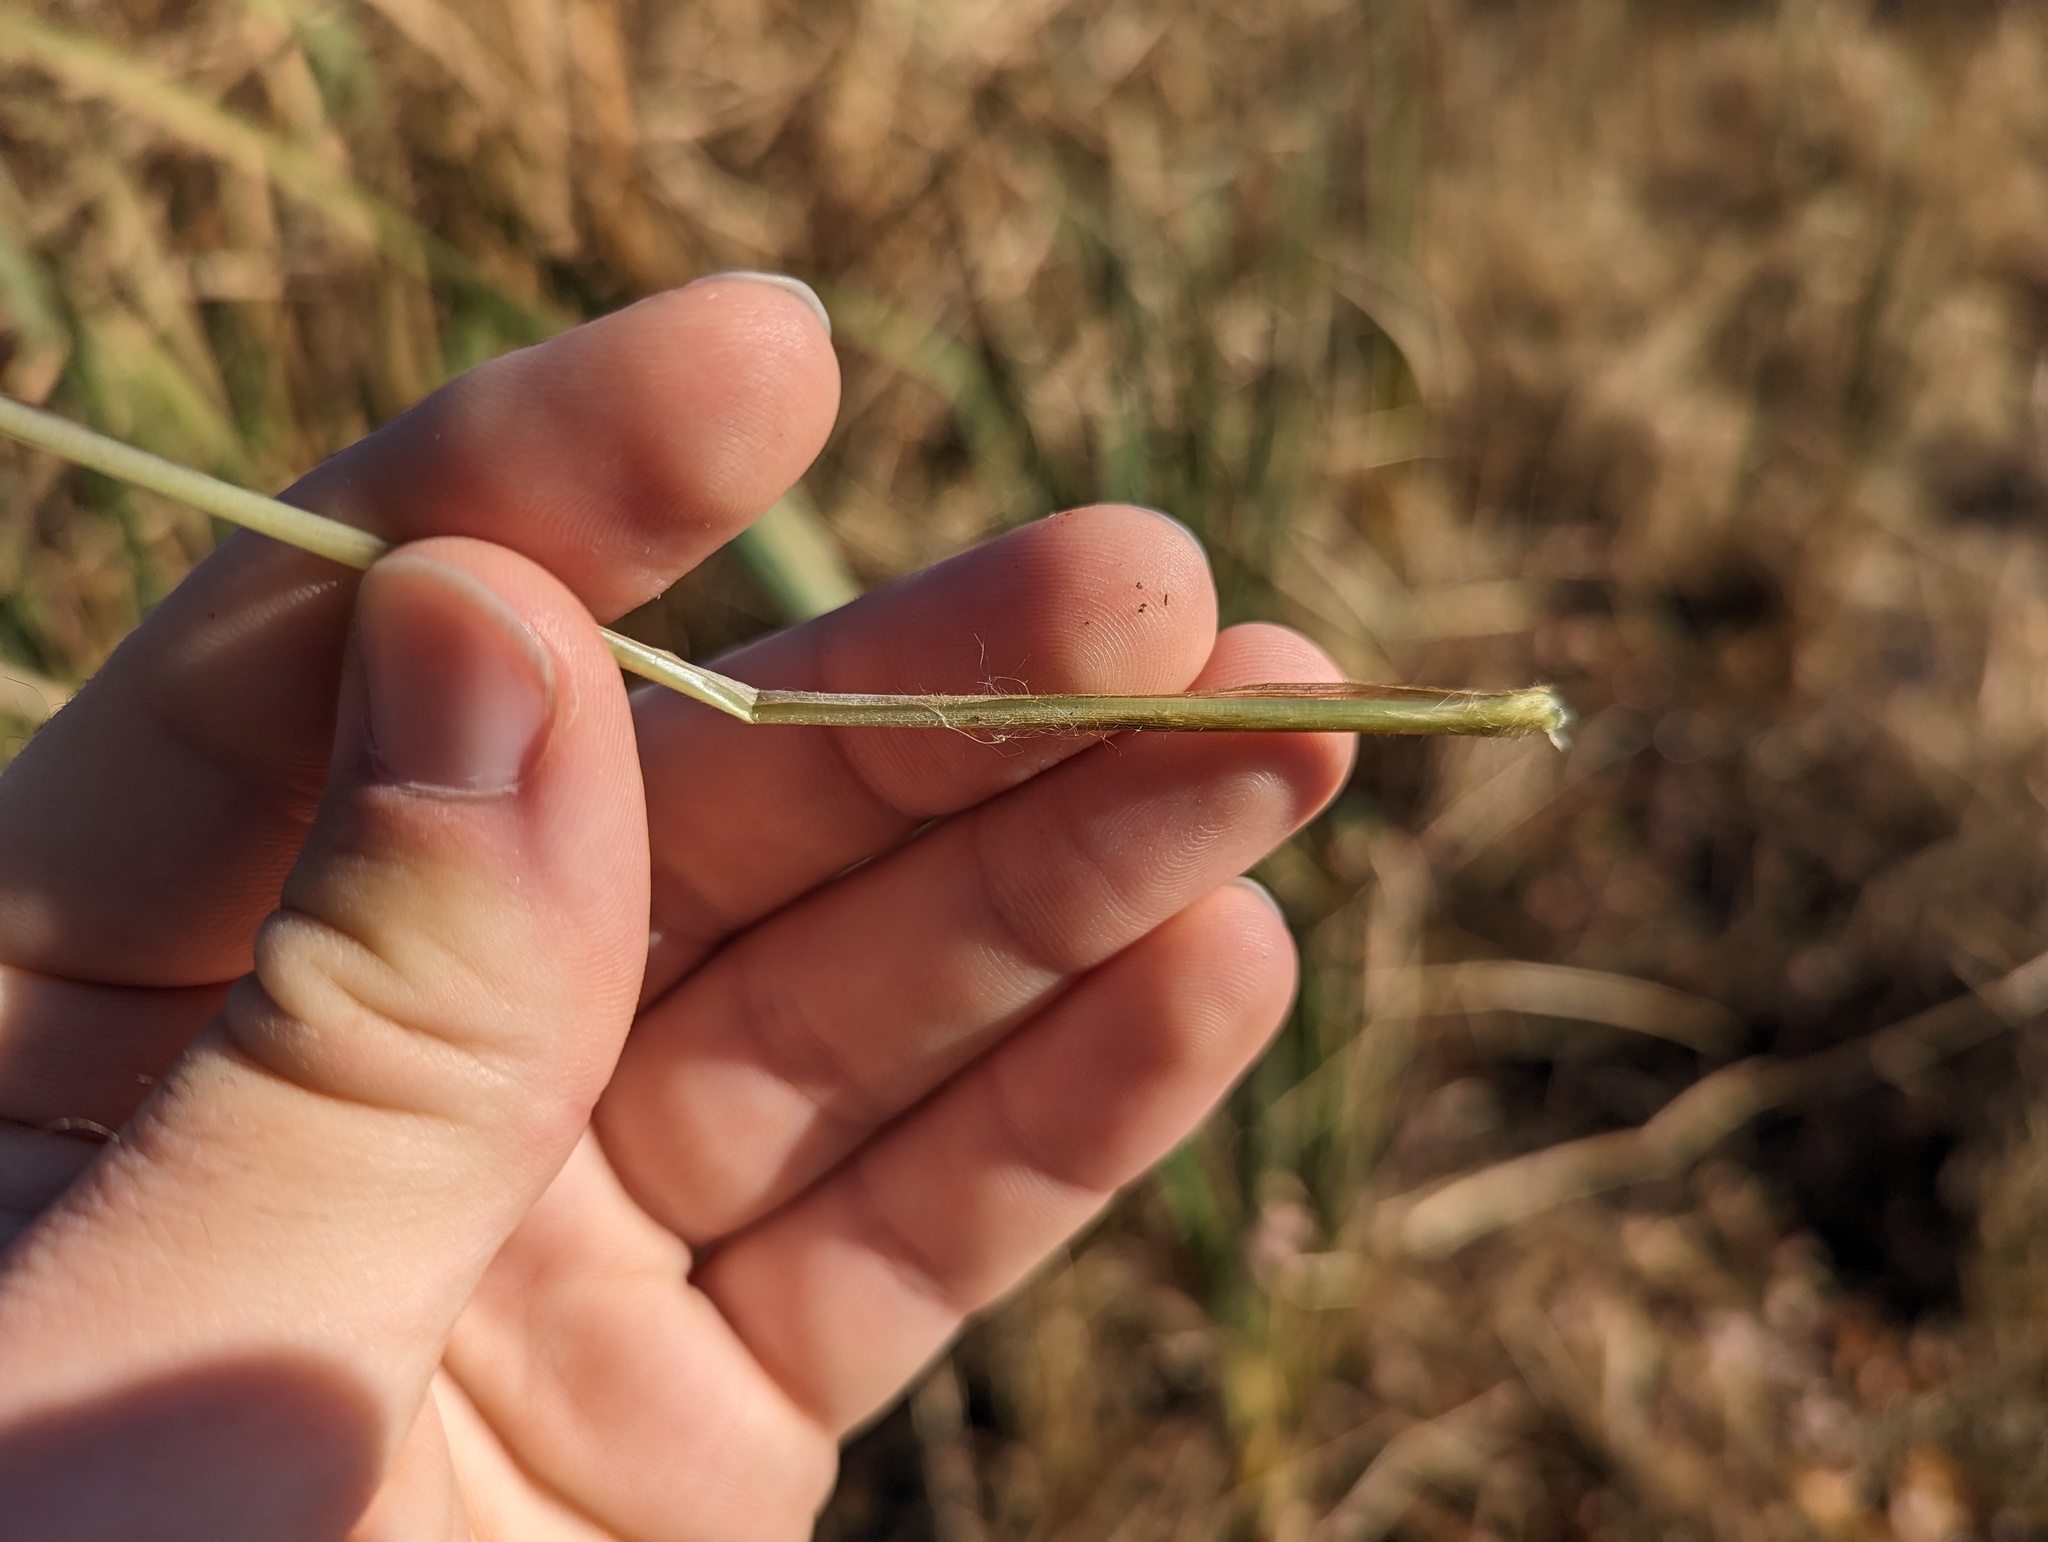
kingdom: Plantae
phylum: Tracheophyta
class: Liliopsida
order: Poales
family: Poaceae
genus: Echinochloa
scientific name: Echinochloa walteri
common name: Coast barnyard grass
